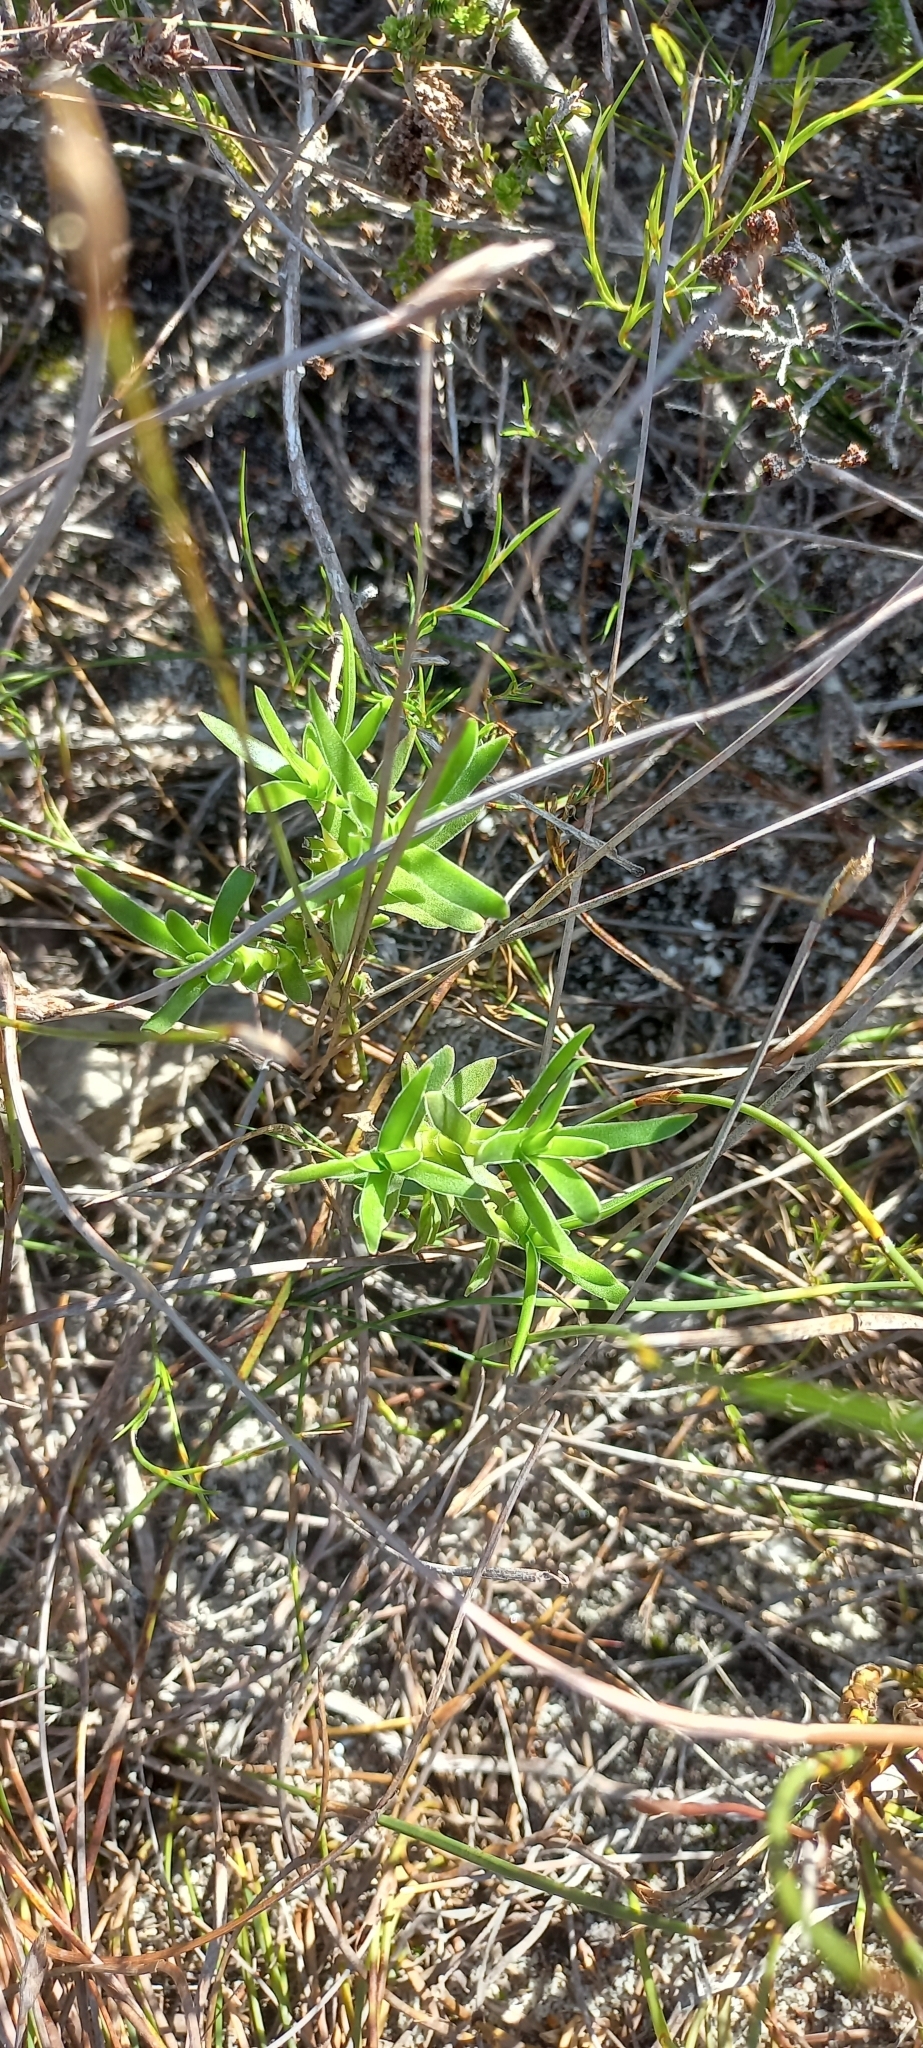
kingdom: Plantae
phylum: Tracheophyta
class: Magnoliopsida
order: Saxifragales
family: Crassulaceae
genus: Crassula
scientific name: Crassula fascicularis
